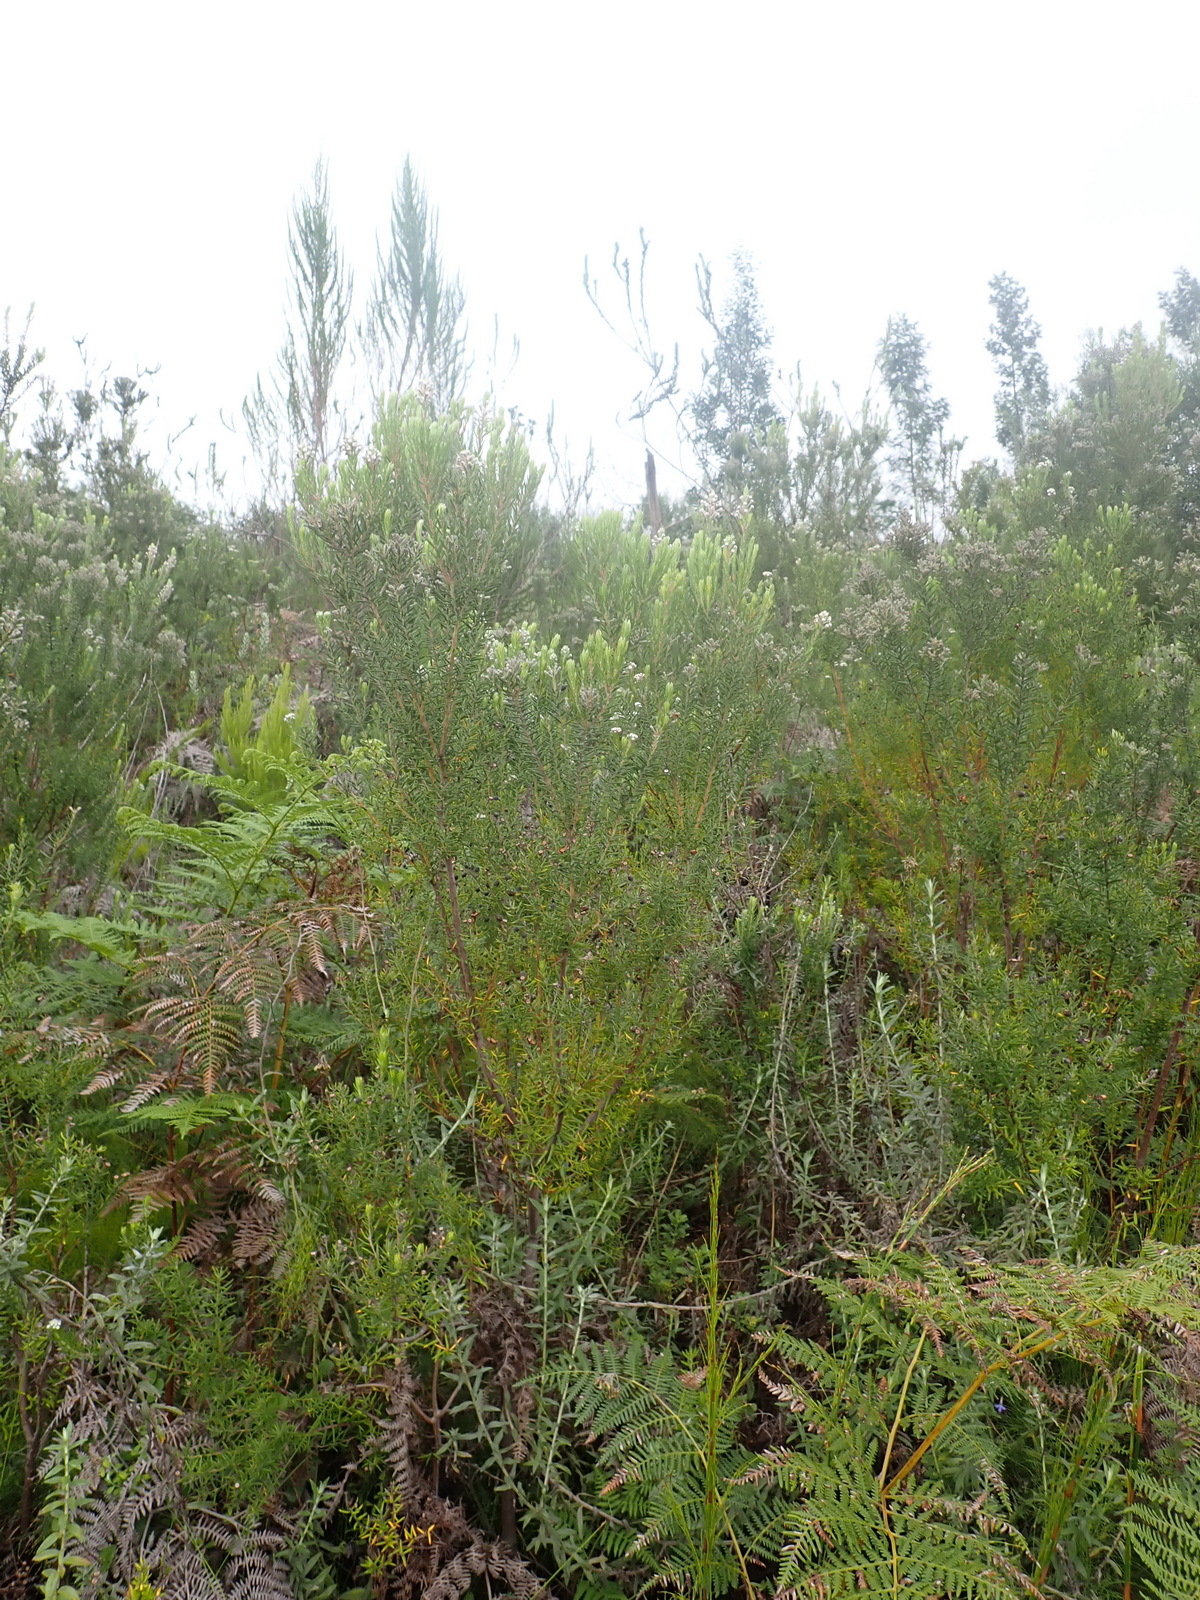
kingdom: Plantae
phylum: Tracheophyta
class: Magnoliopsida
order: Rosales
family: Rhamnaceae
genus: Phylica
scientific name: Phylica pinea
